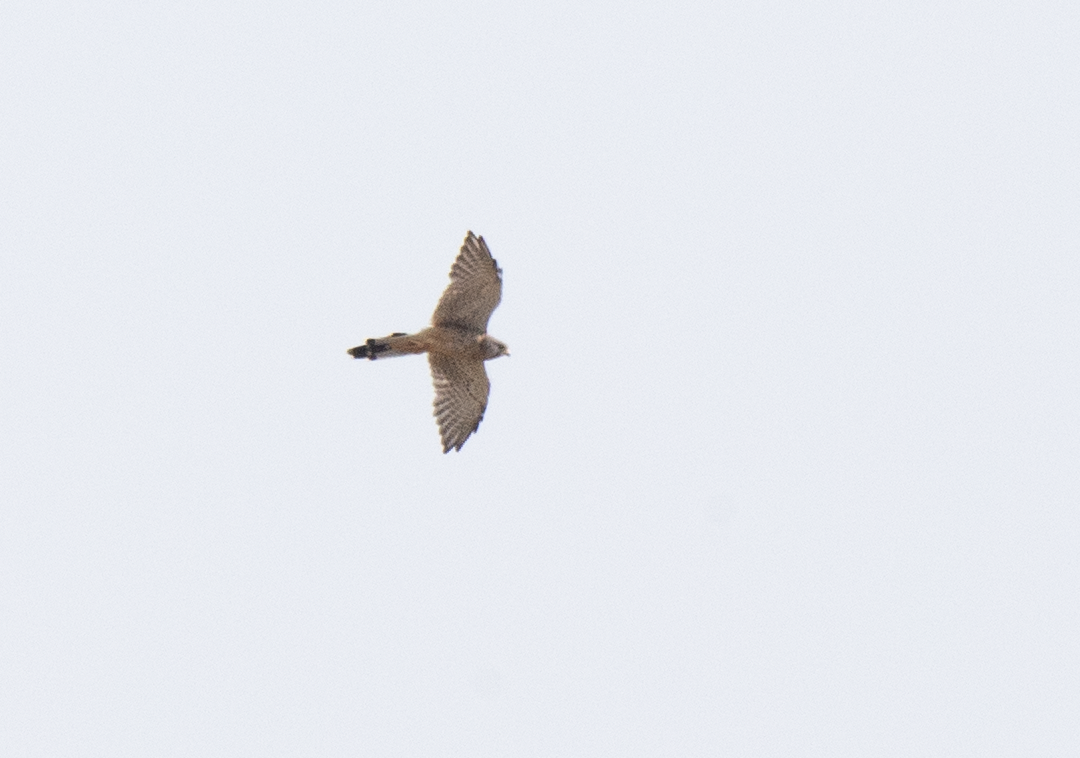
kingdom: Animalia
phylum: Chordata
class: Aves
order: Falconiformes
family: Falconidae
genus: Falco
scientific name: Falco tinnunculus
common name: Common kestrel
